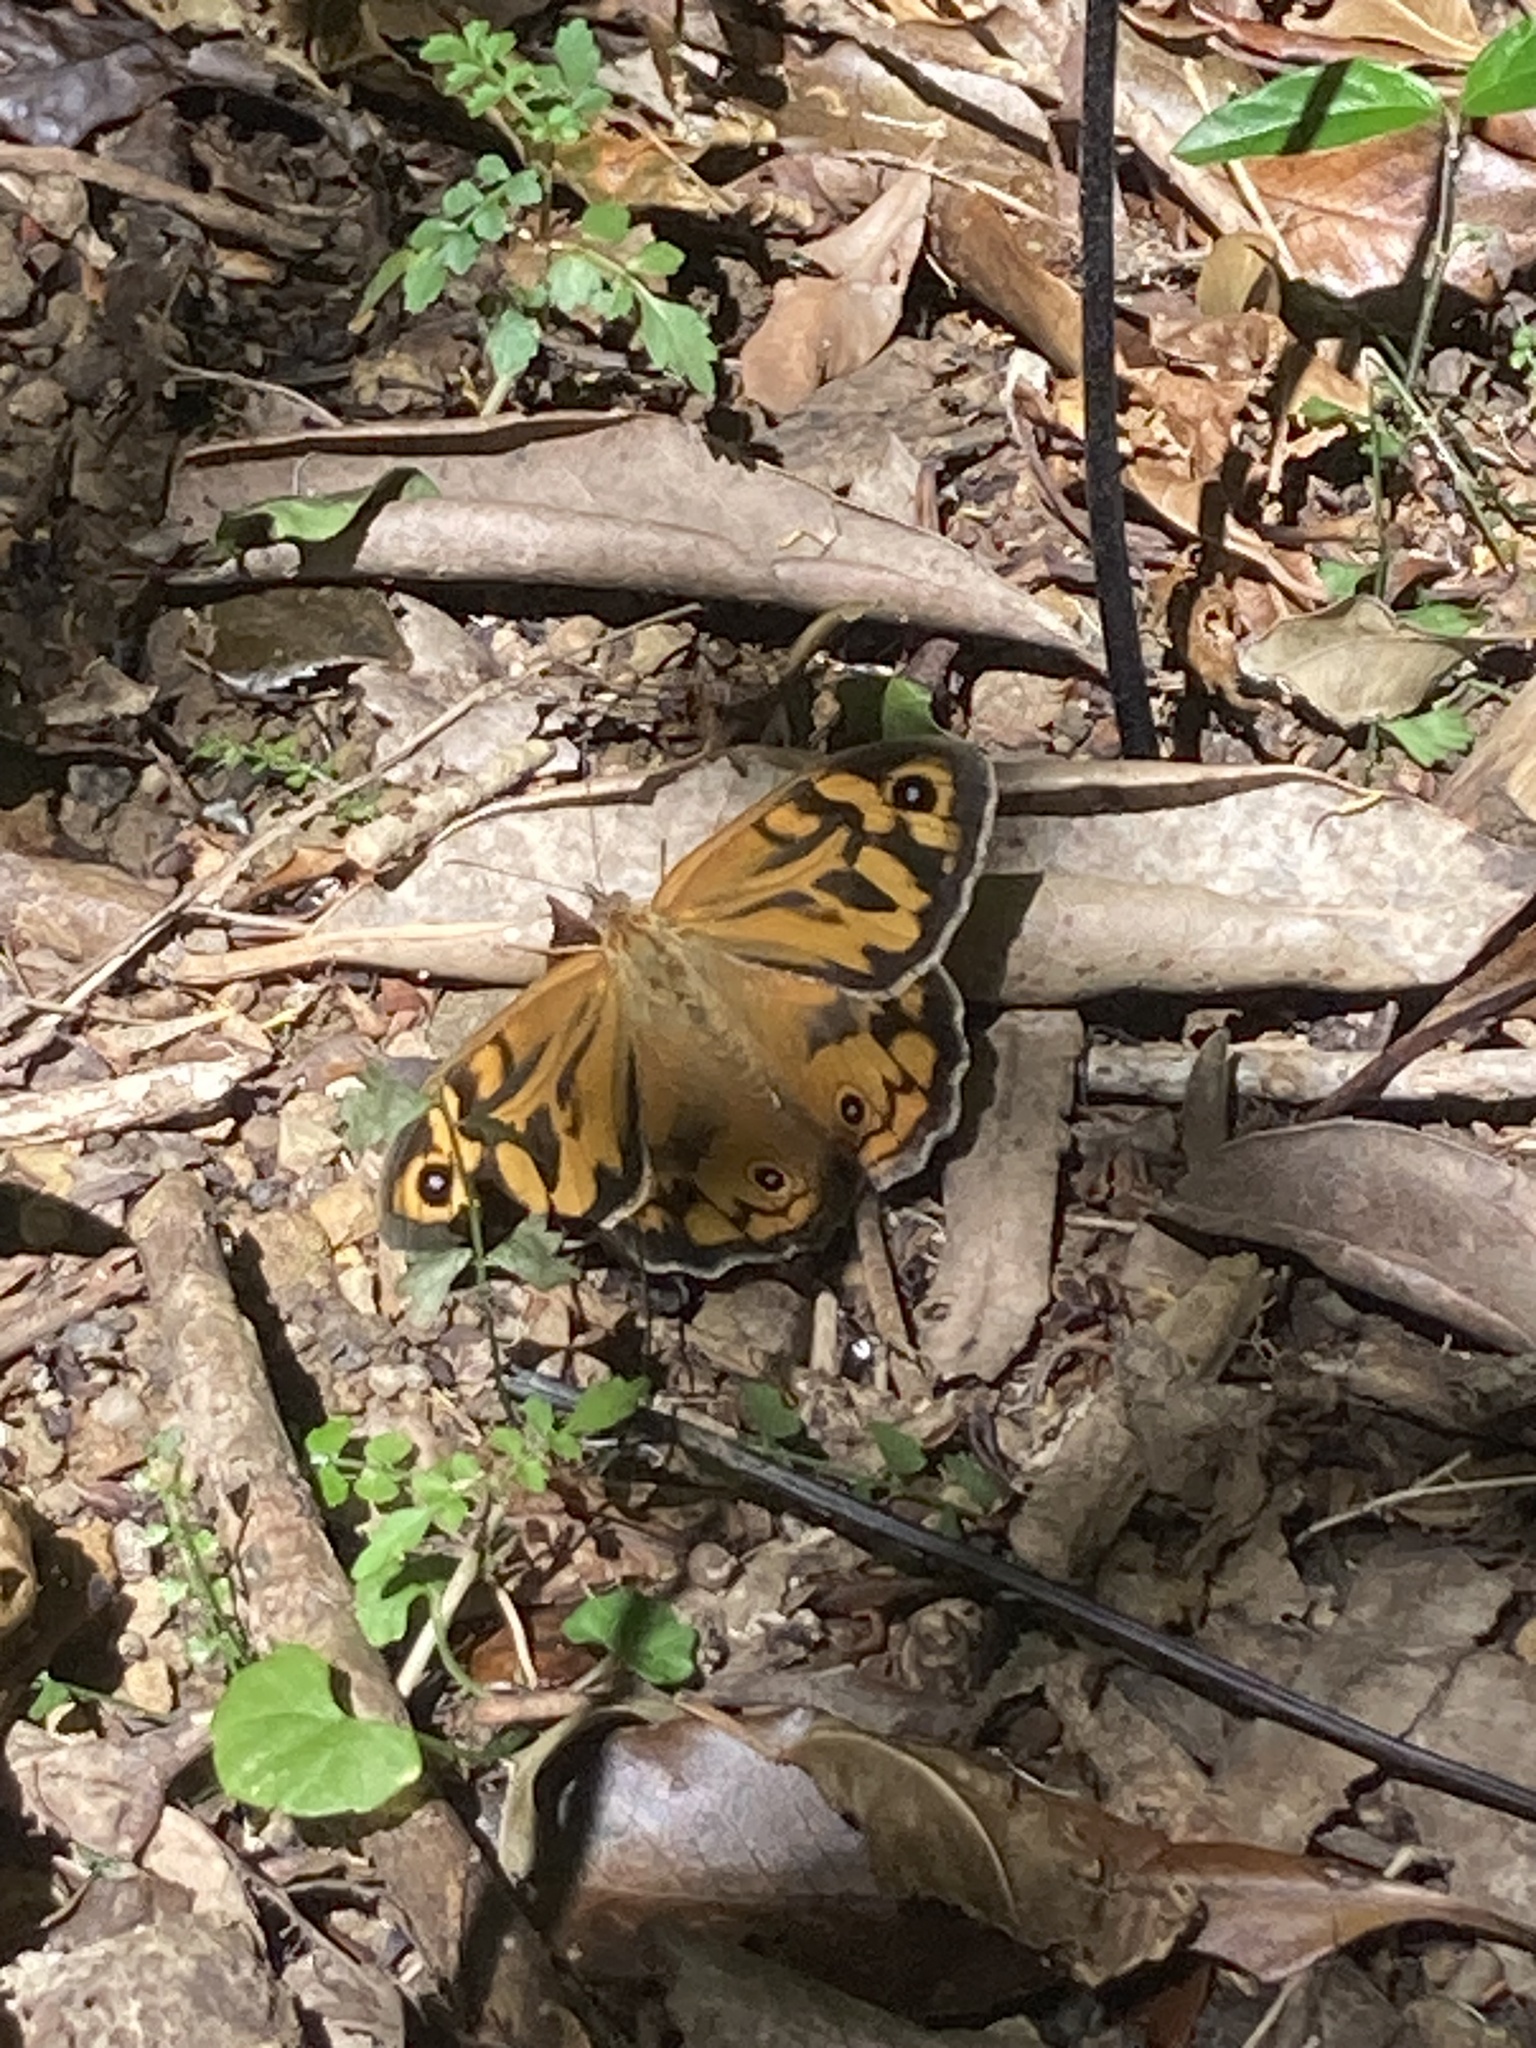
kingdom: Animalia
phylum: Arthropoda
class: Insecta
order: Lepidoptera
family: Nymphalidae
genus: Heteronympha
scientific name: Heteronympha merope
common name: Common brown
